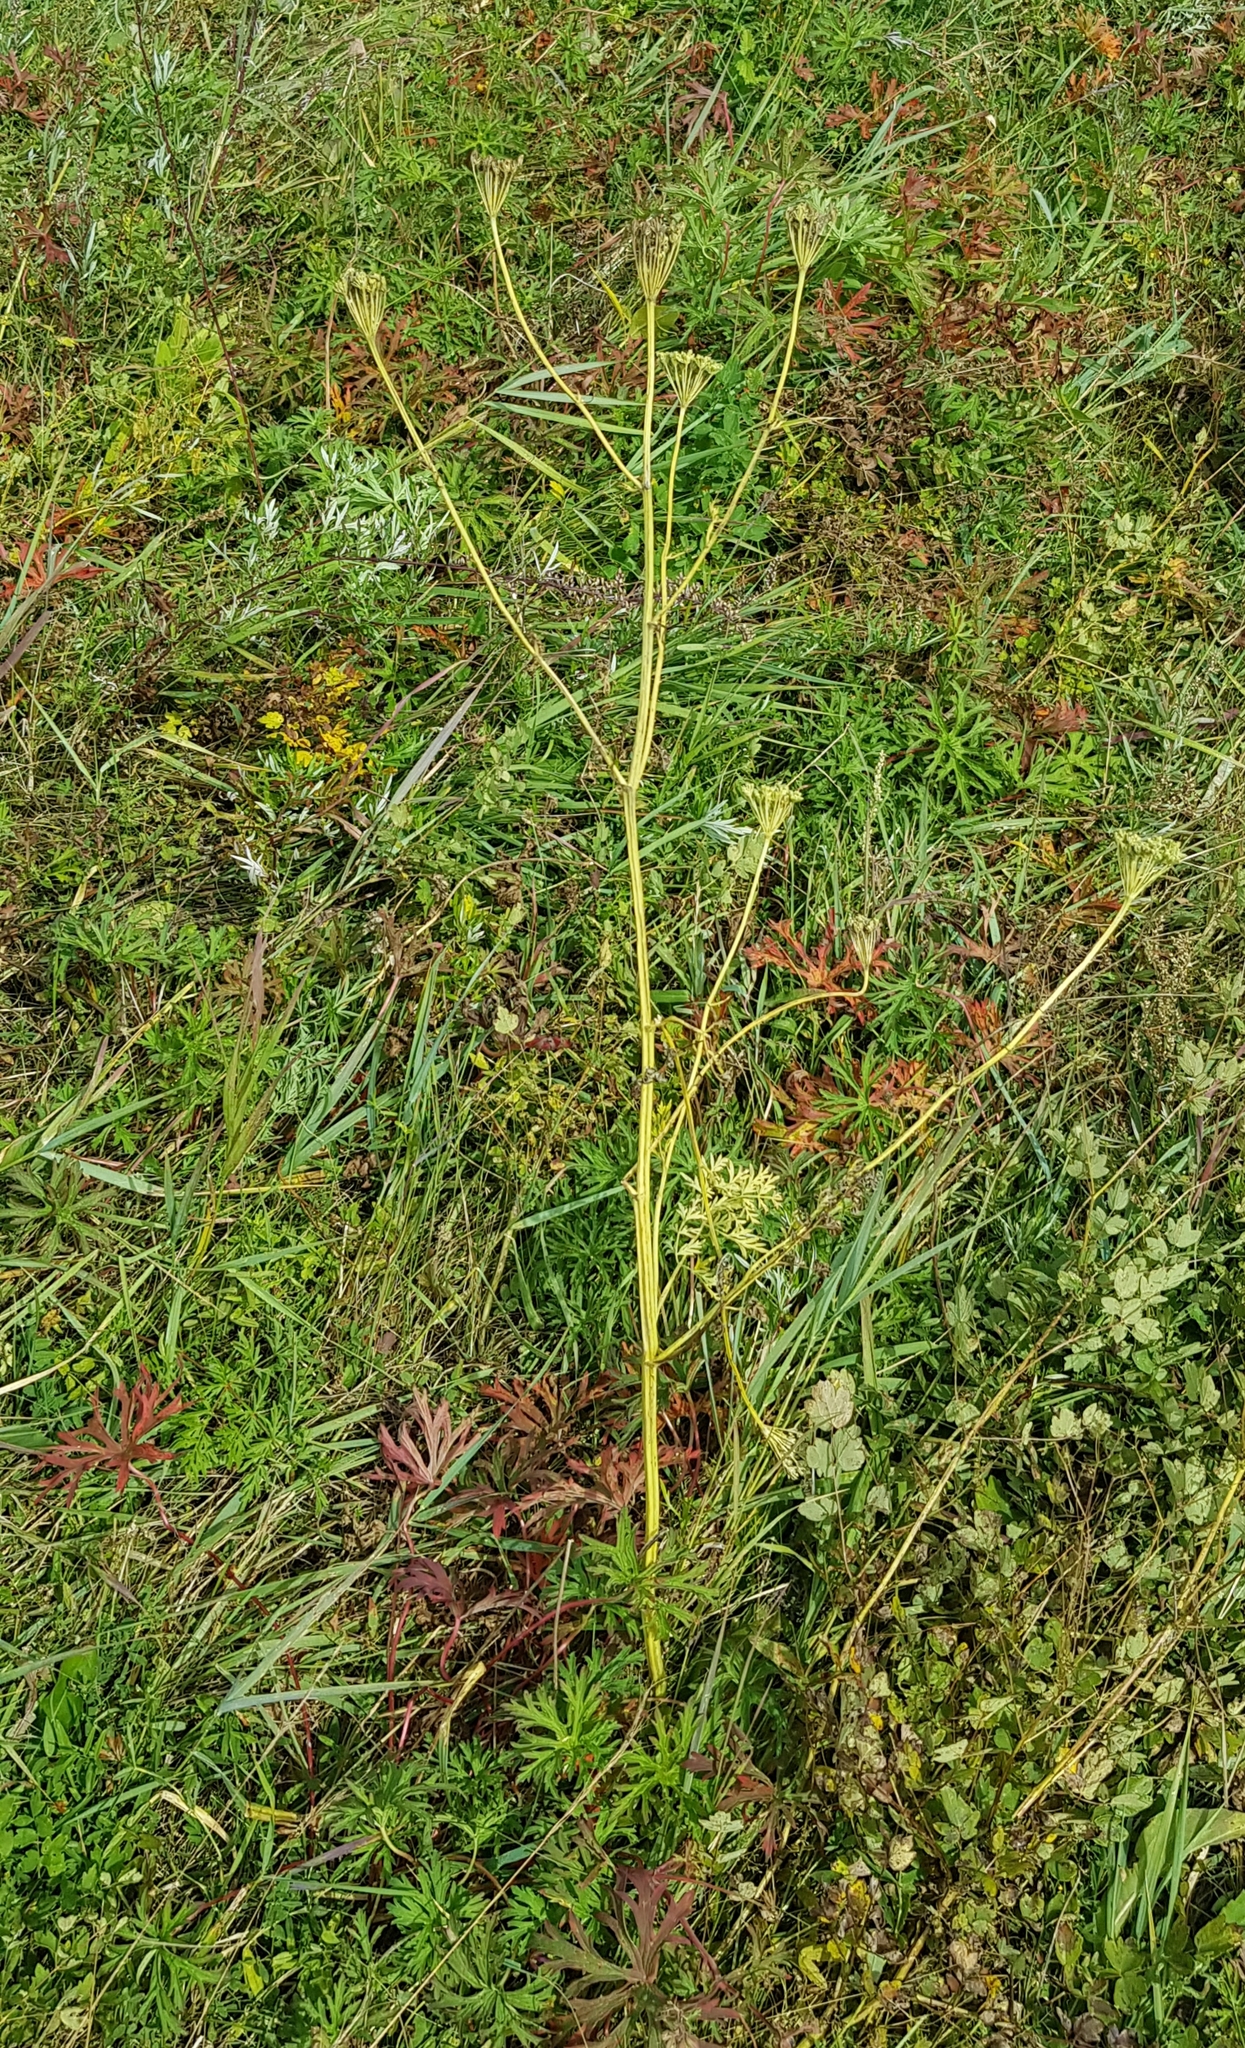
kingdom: Plantae
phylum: Tracheophyta
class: Magnoliopsida
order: Apiales
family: Apiaceae
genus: Pleurospermum
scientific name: Pleurospermum uralense
